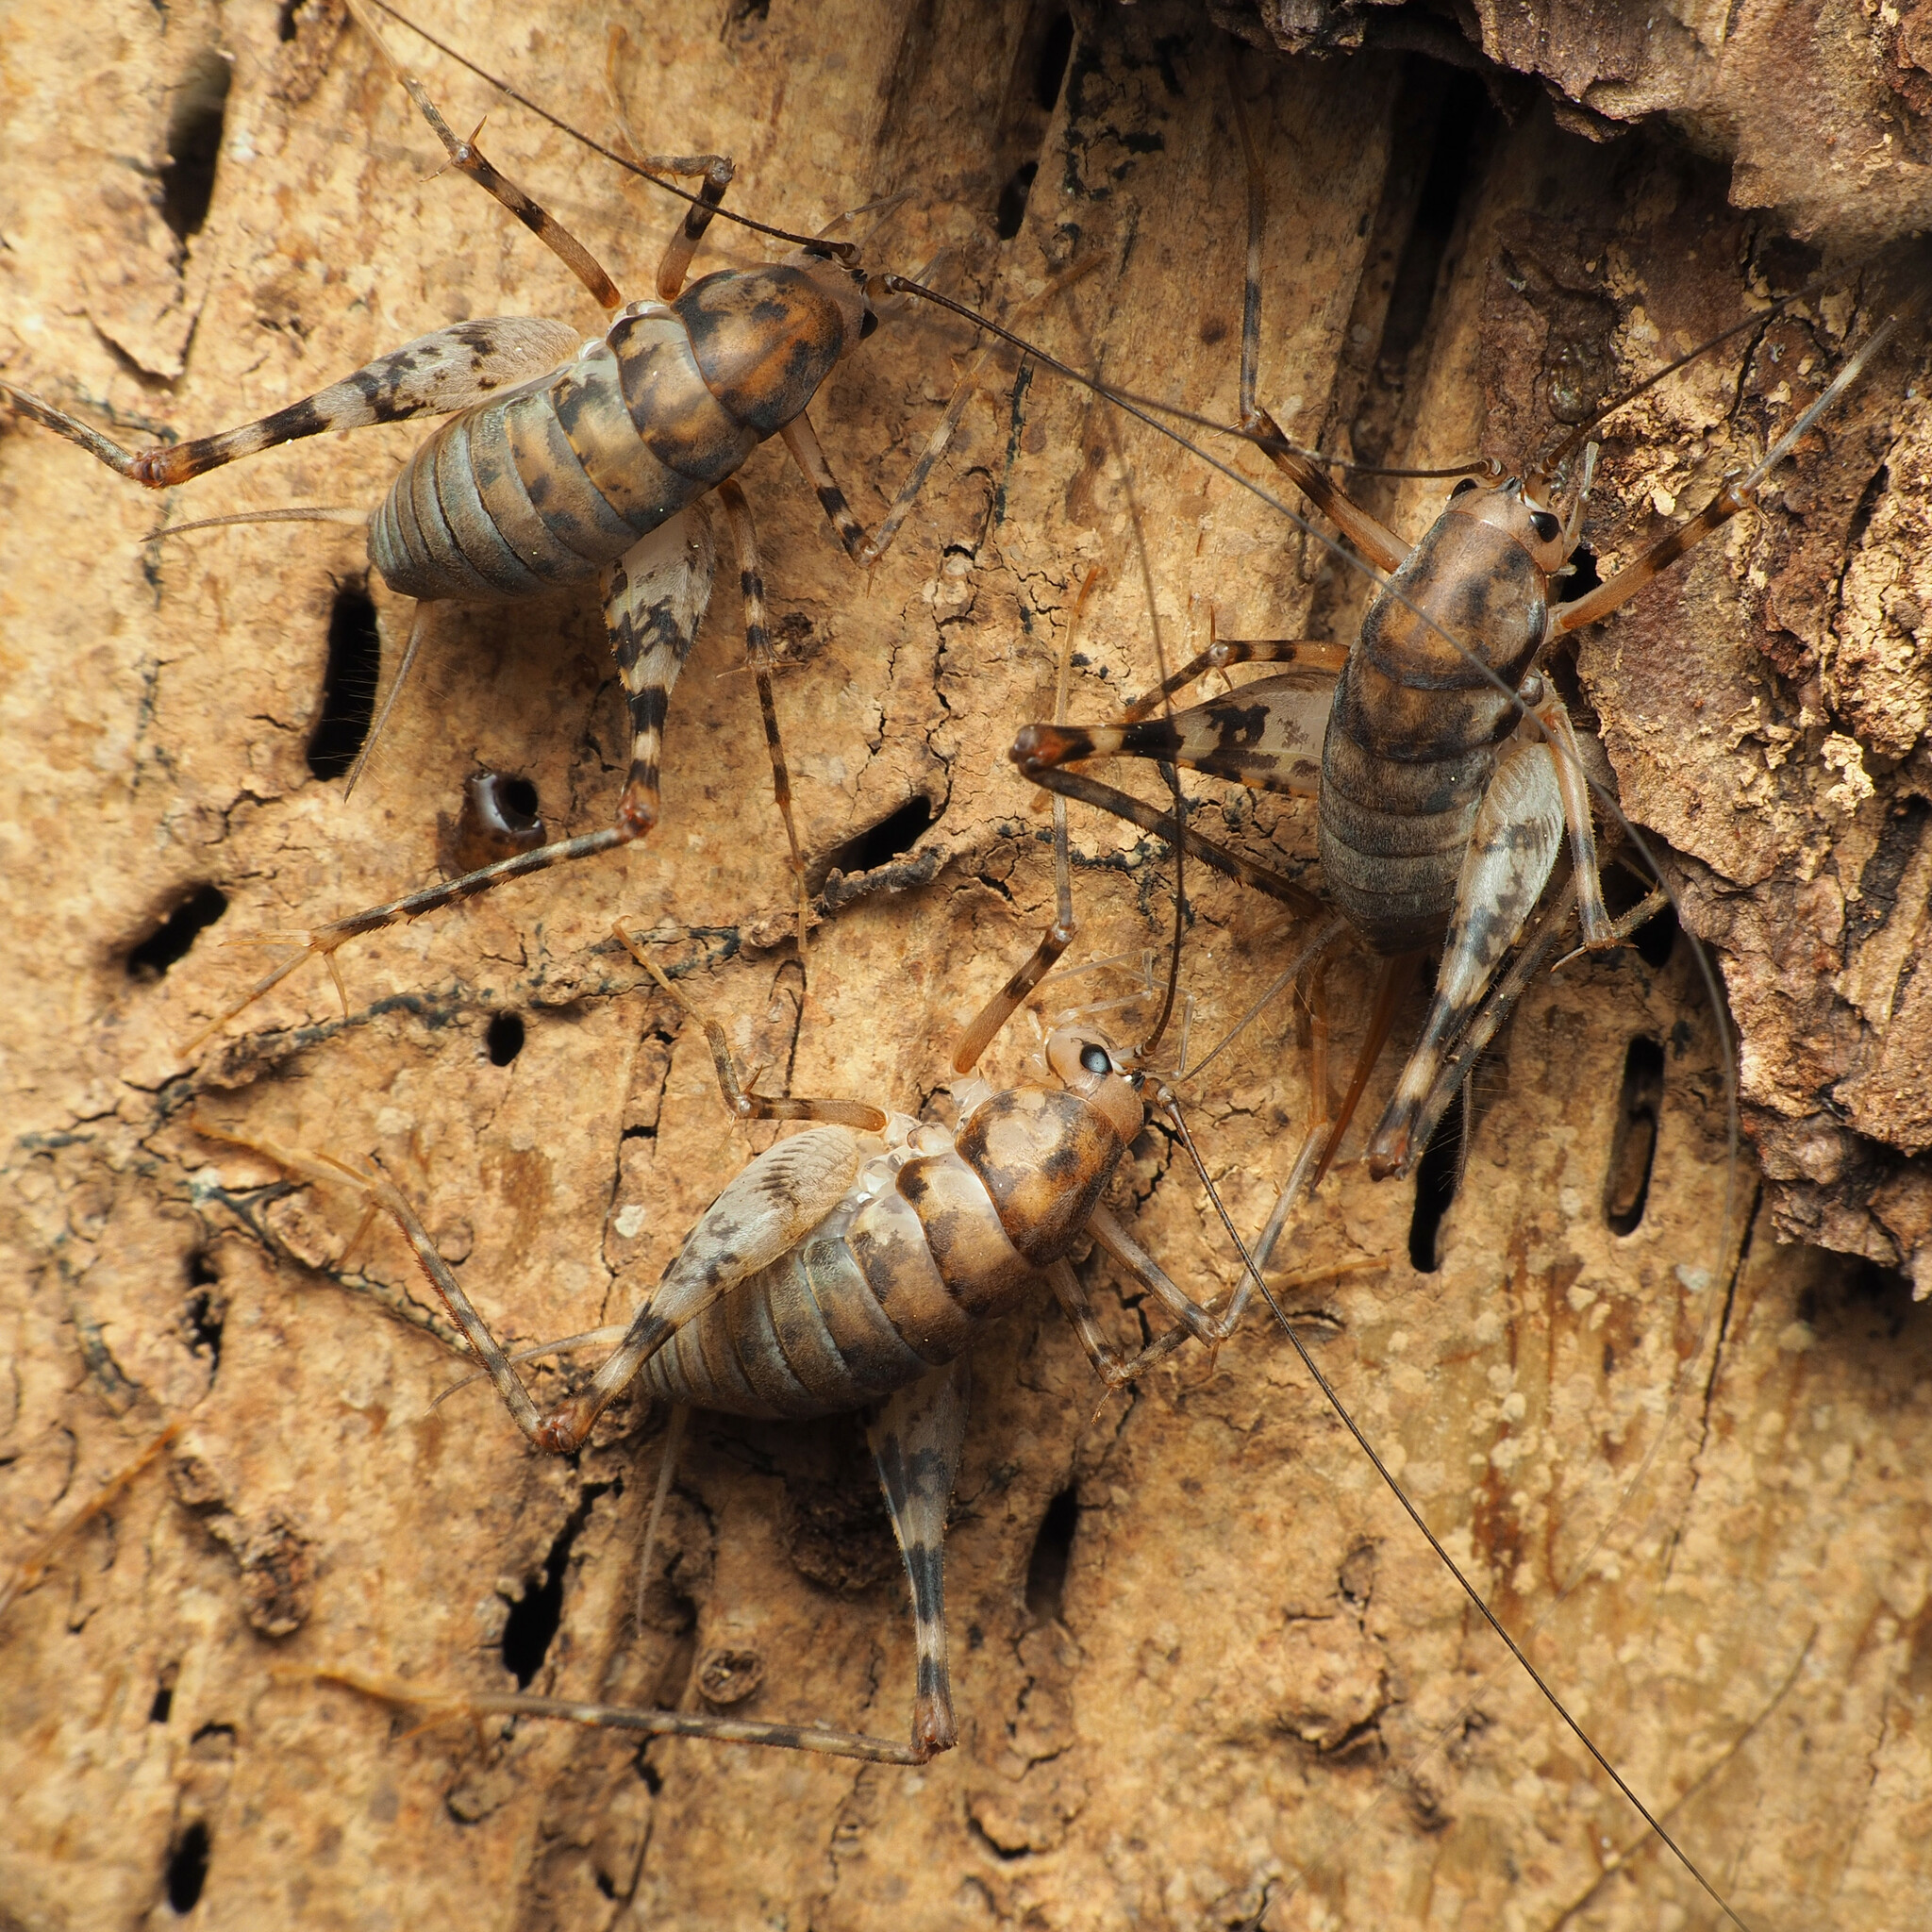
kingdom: Animalia
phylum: Arthropoda
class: Insecta
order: Orthoptera
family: Rhaphidophoridae
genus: Tachycines
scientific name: Tachycines asynamorus
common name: Greenhouse camel cricket
